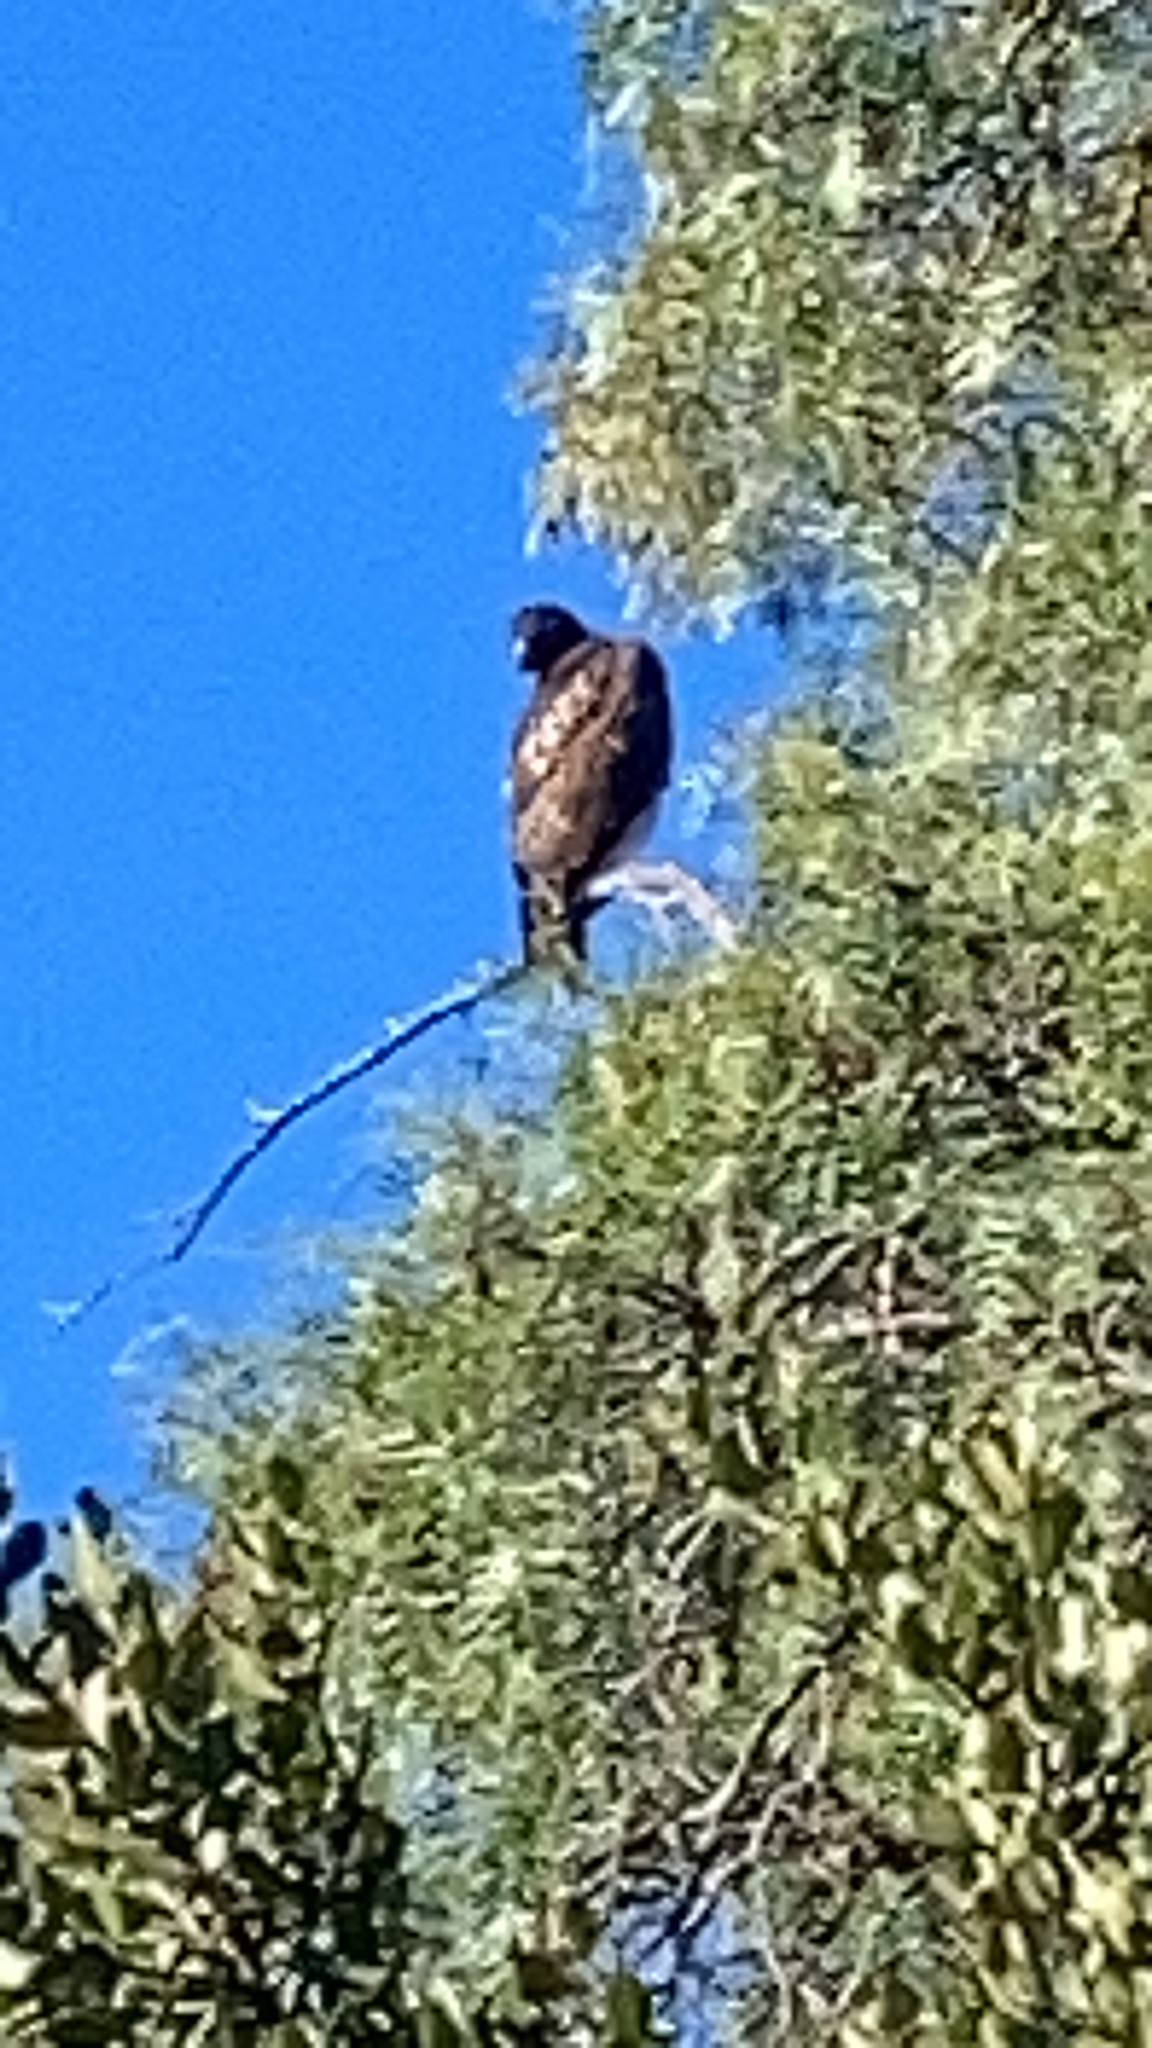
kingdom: Animalia
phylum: Chordata
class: Aves
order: Accipitriformes
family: Accipitridae
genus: Buteo
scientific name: Buteo jamaicensis
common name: Red-tailed hawk
